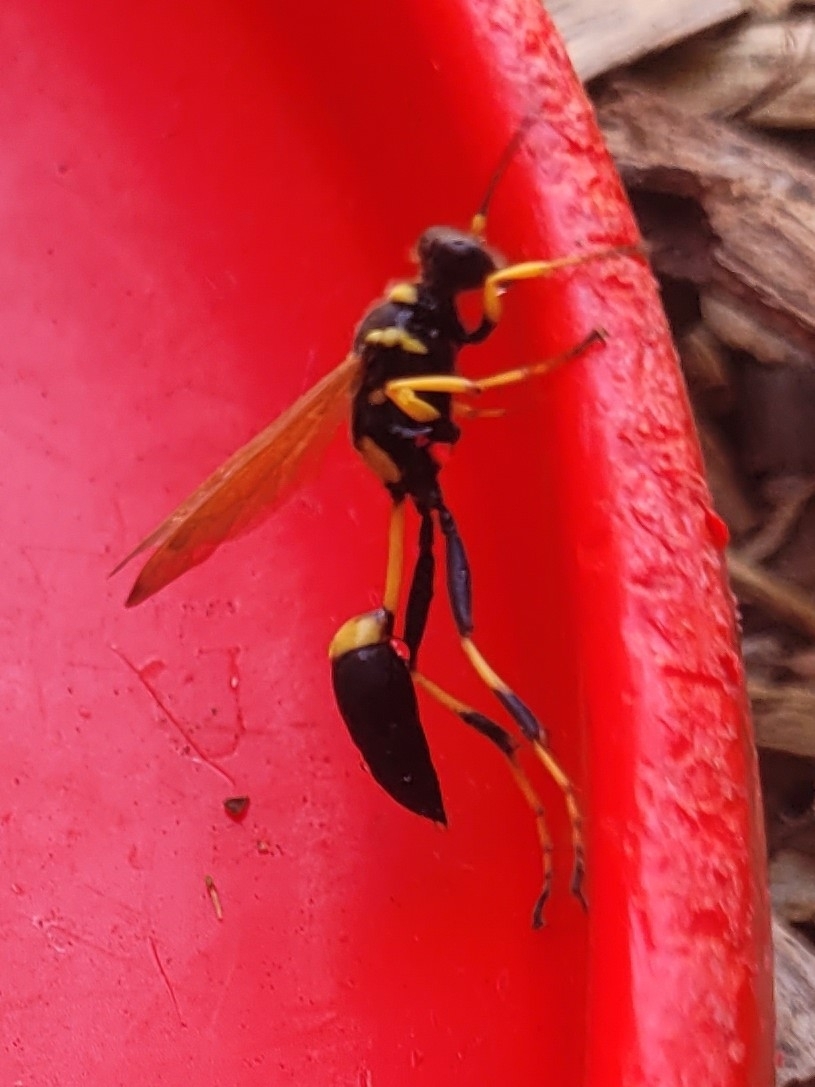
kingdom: Animalia
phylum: Arthropoda
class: Insecta
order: Hymenoptera
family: Sphecidae
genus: Sceliphron
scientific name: Sceliphron caementarium
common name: Mud dauber
